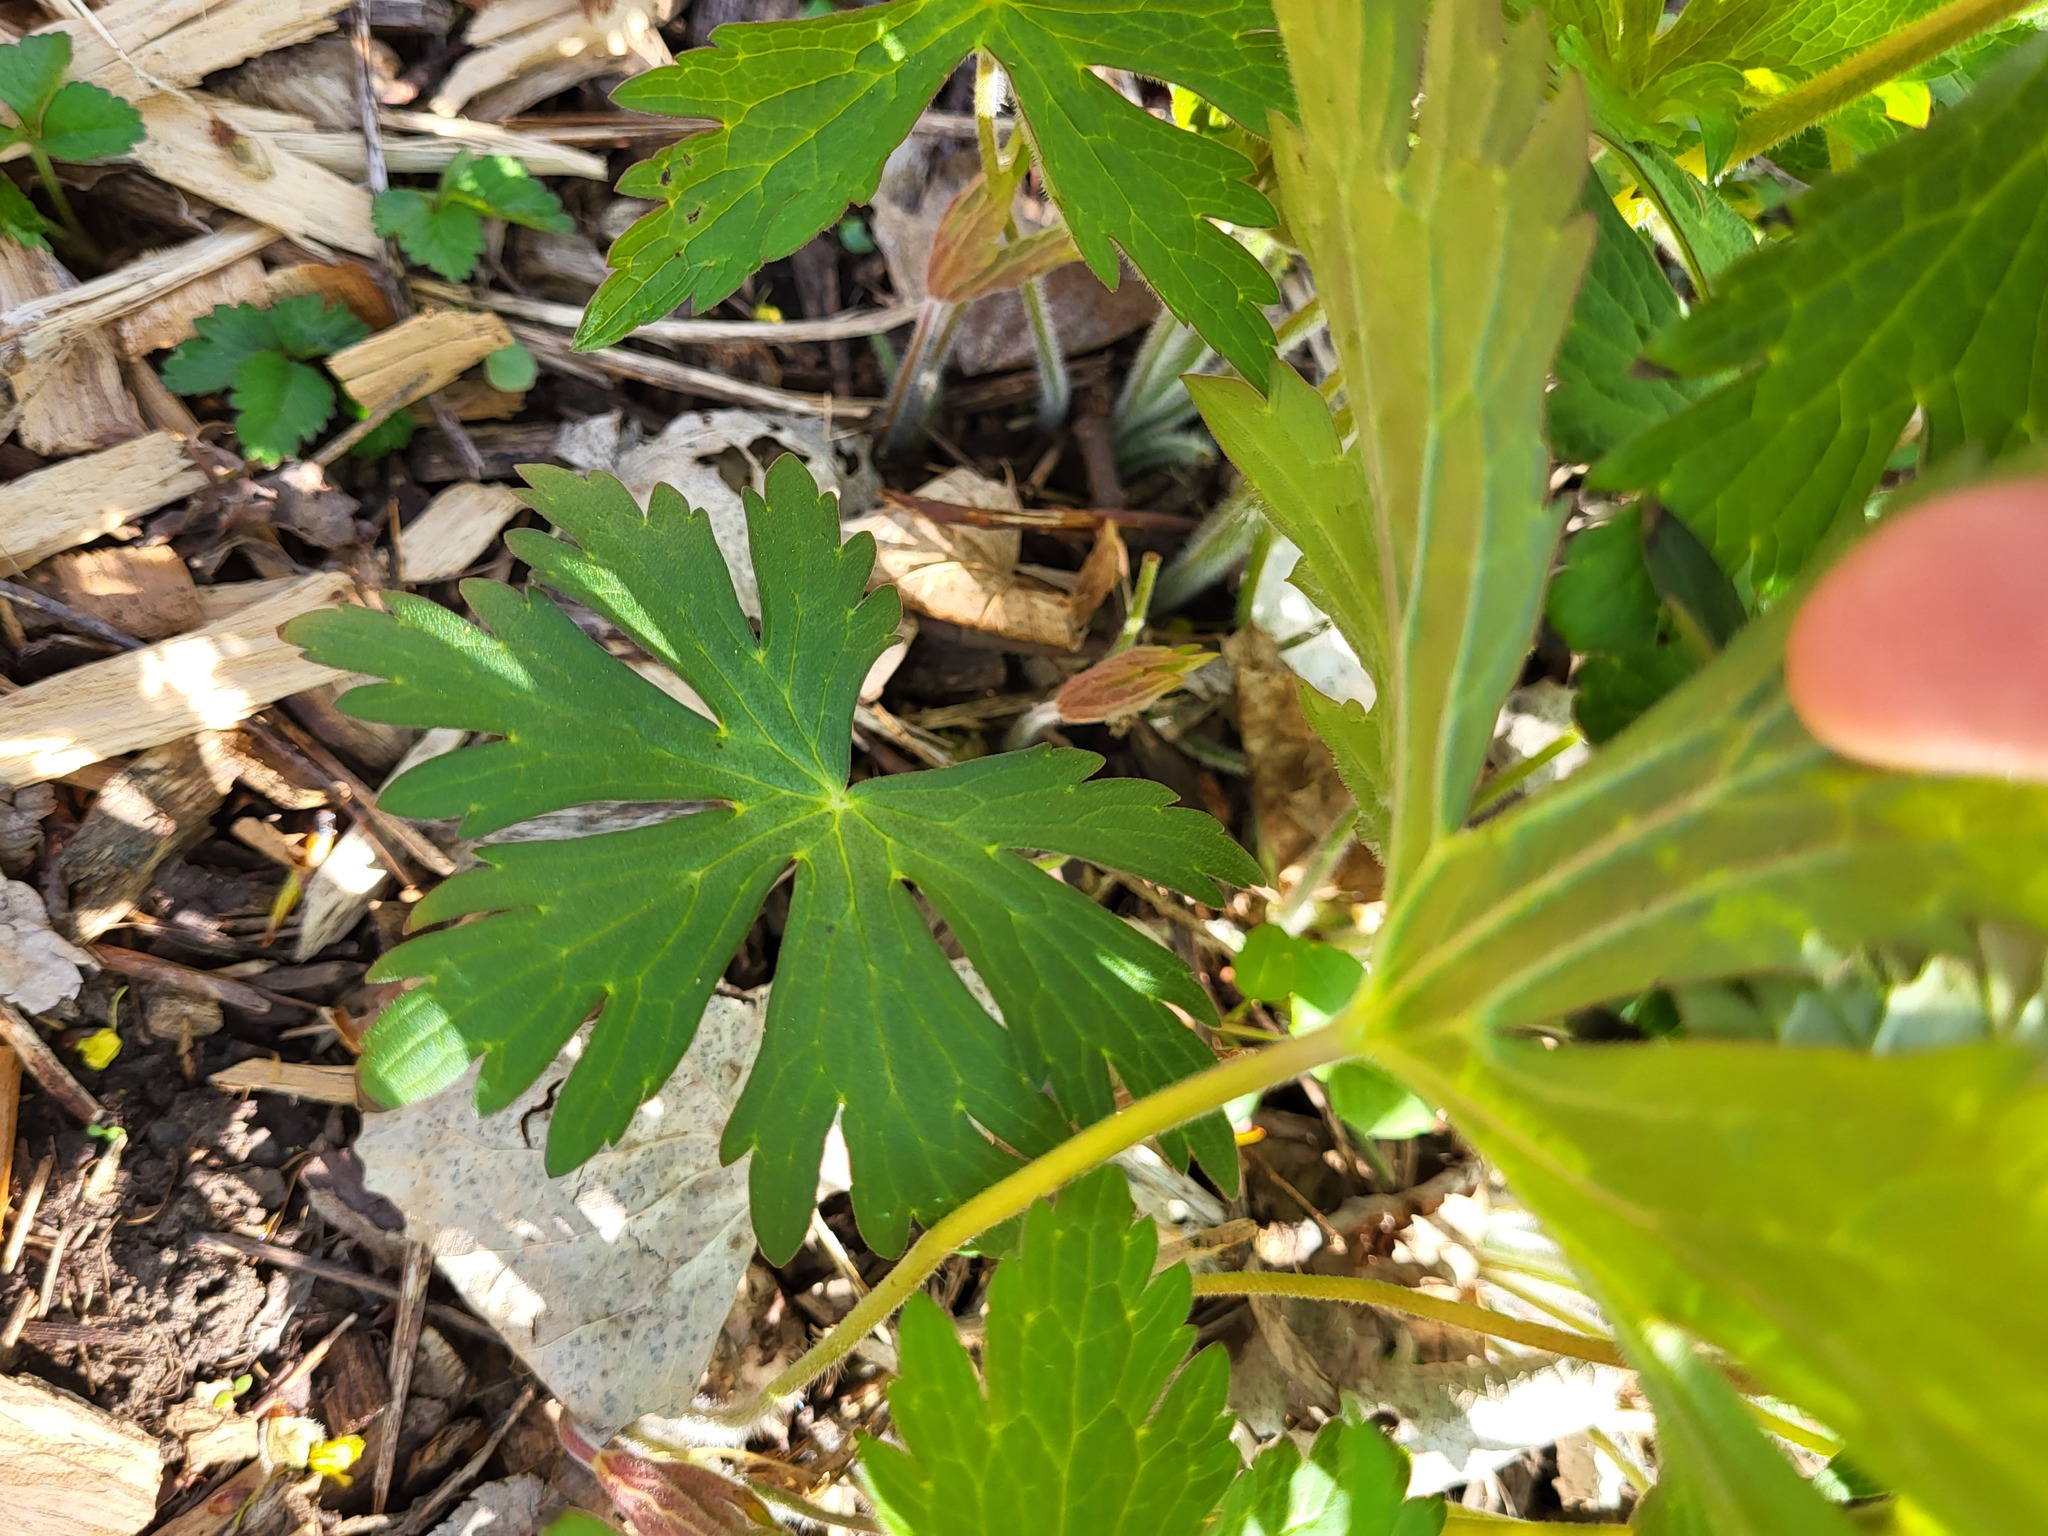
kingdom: Plantae
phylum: Tracheophyta
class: Magnoliopsida
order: Geraniales
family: Geraniaceae
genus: Geranium
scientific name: Geranium maculatum
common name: Spotted geranium
